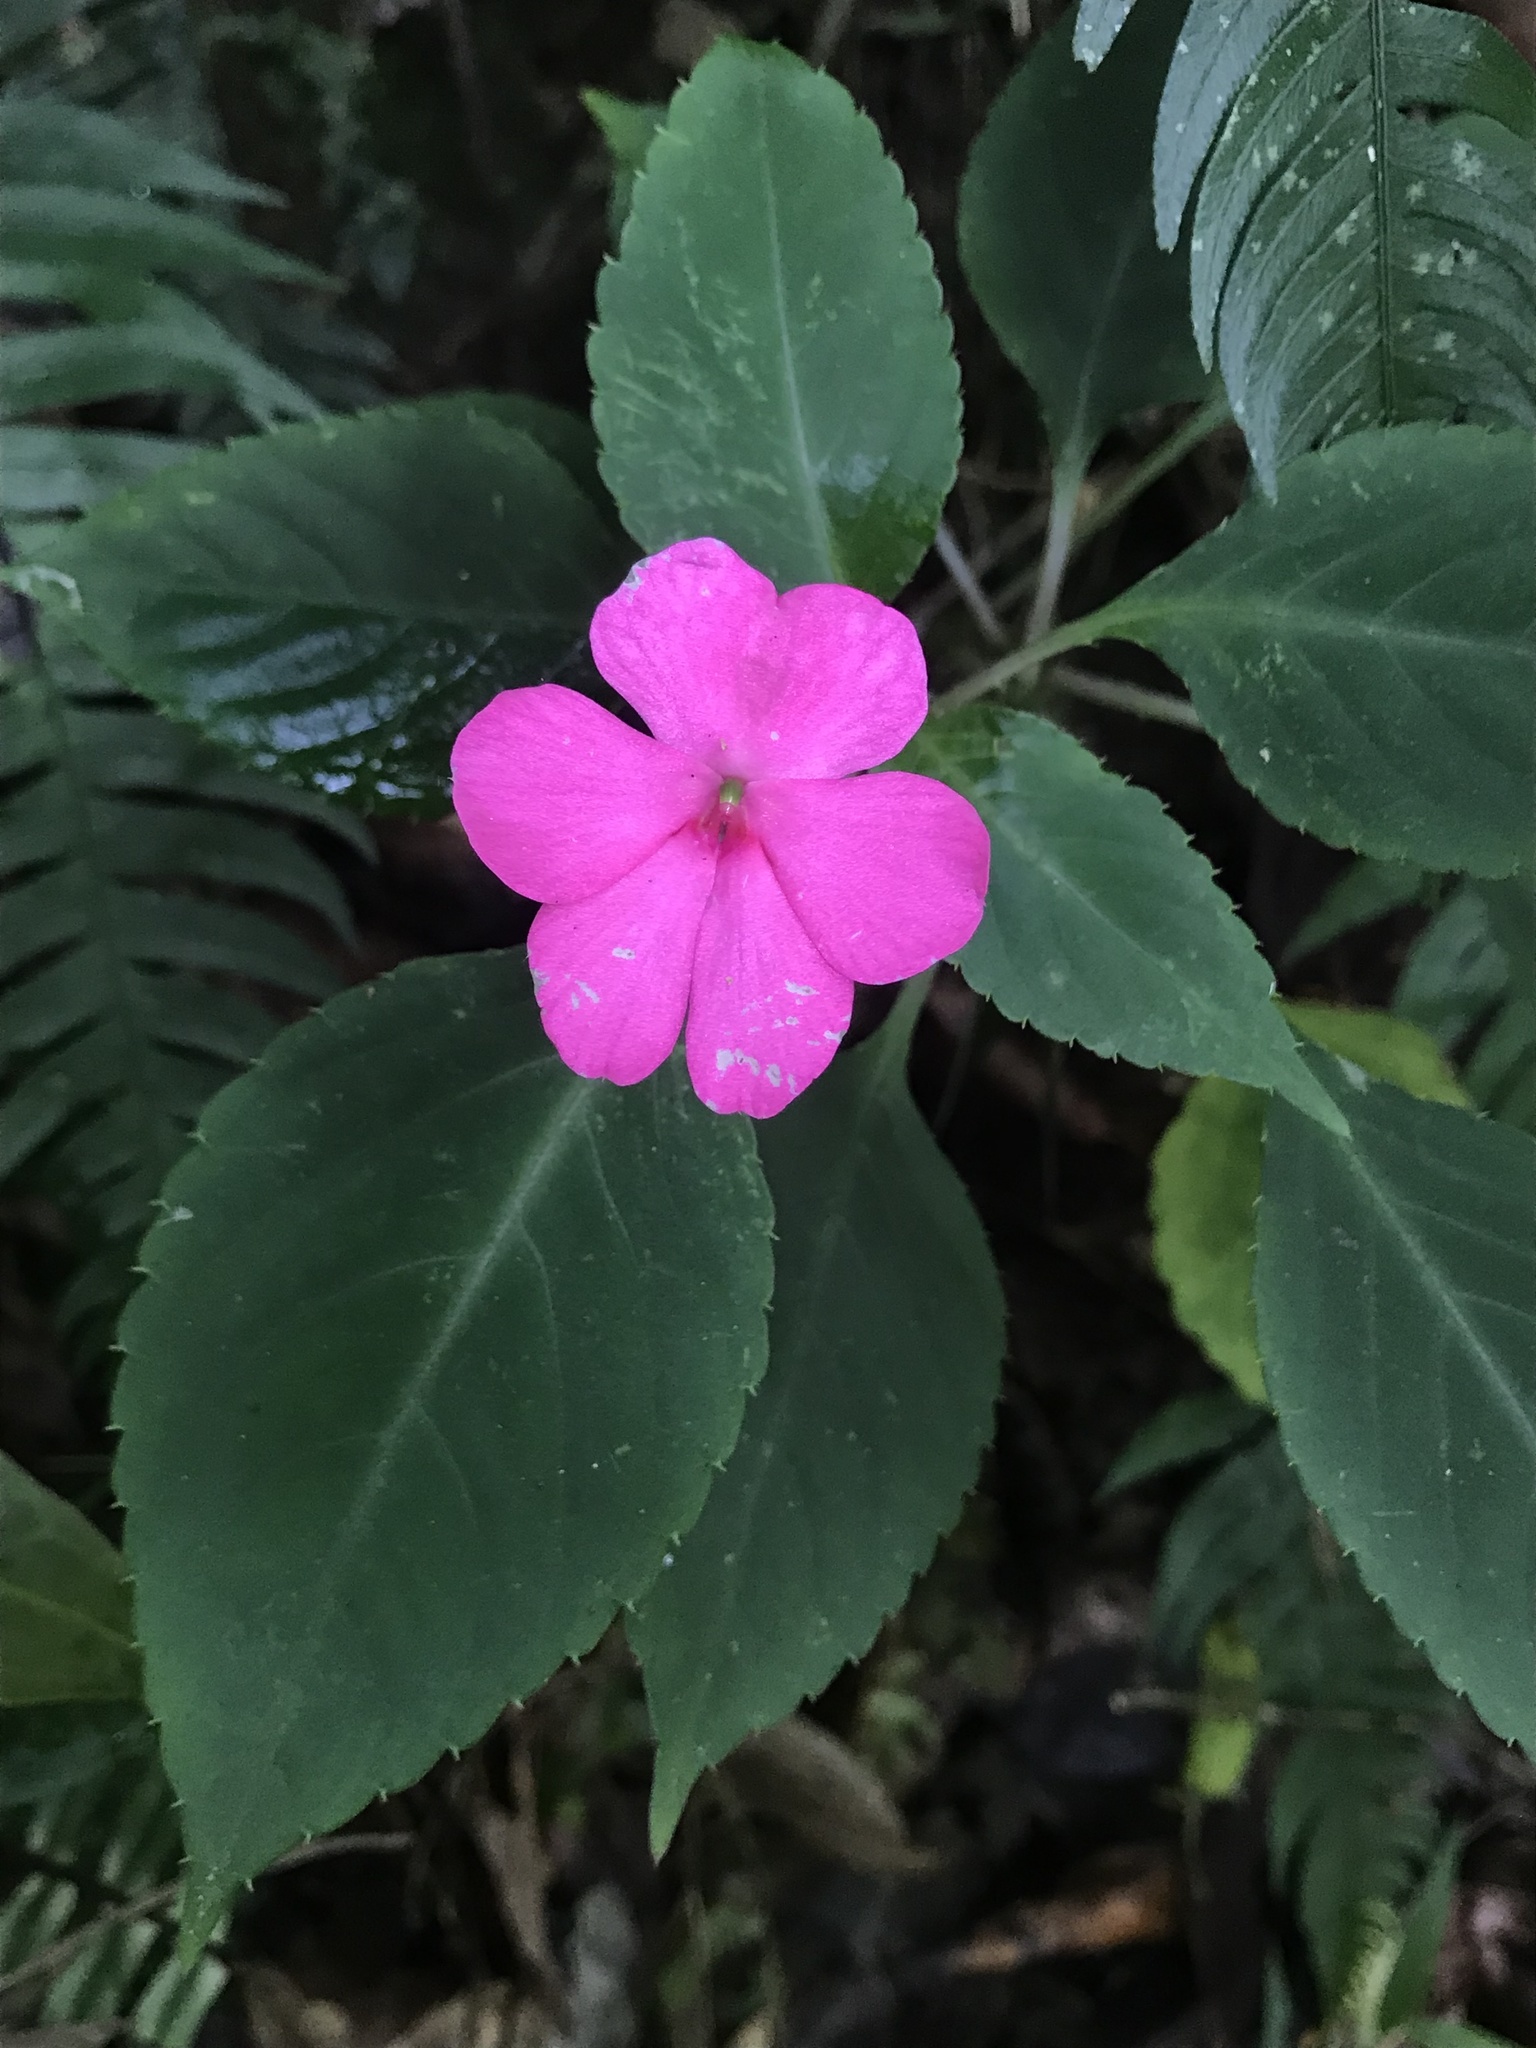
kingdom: Plantae
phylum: Tracheophyta
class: Magnoliopsida
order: Ericales
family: Balsaminaceae
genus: Impatiens
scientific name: Impatiens walleriana
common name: Buzzy lizzy
